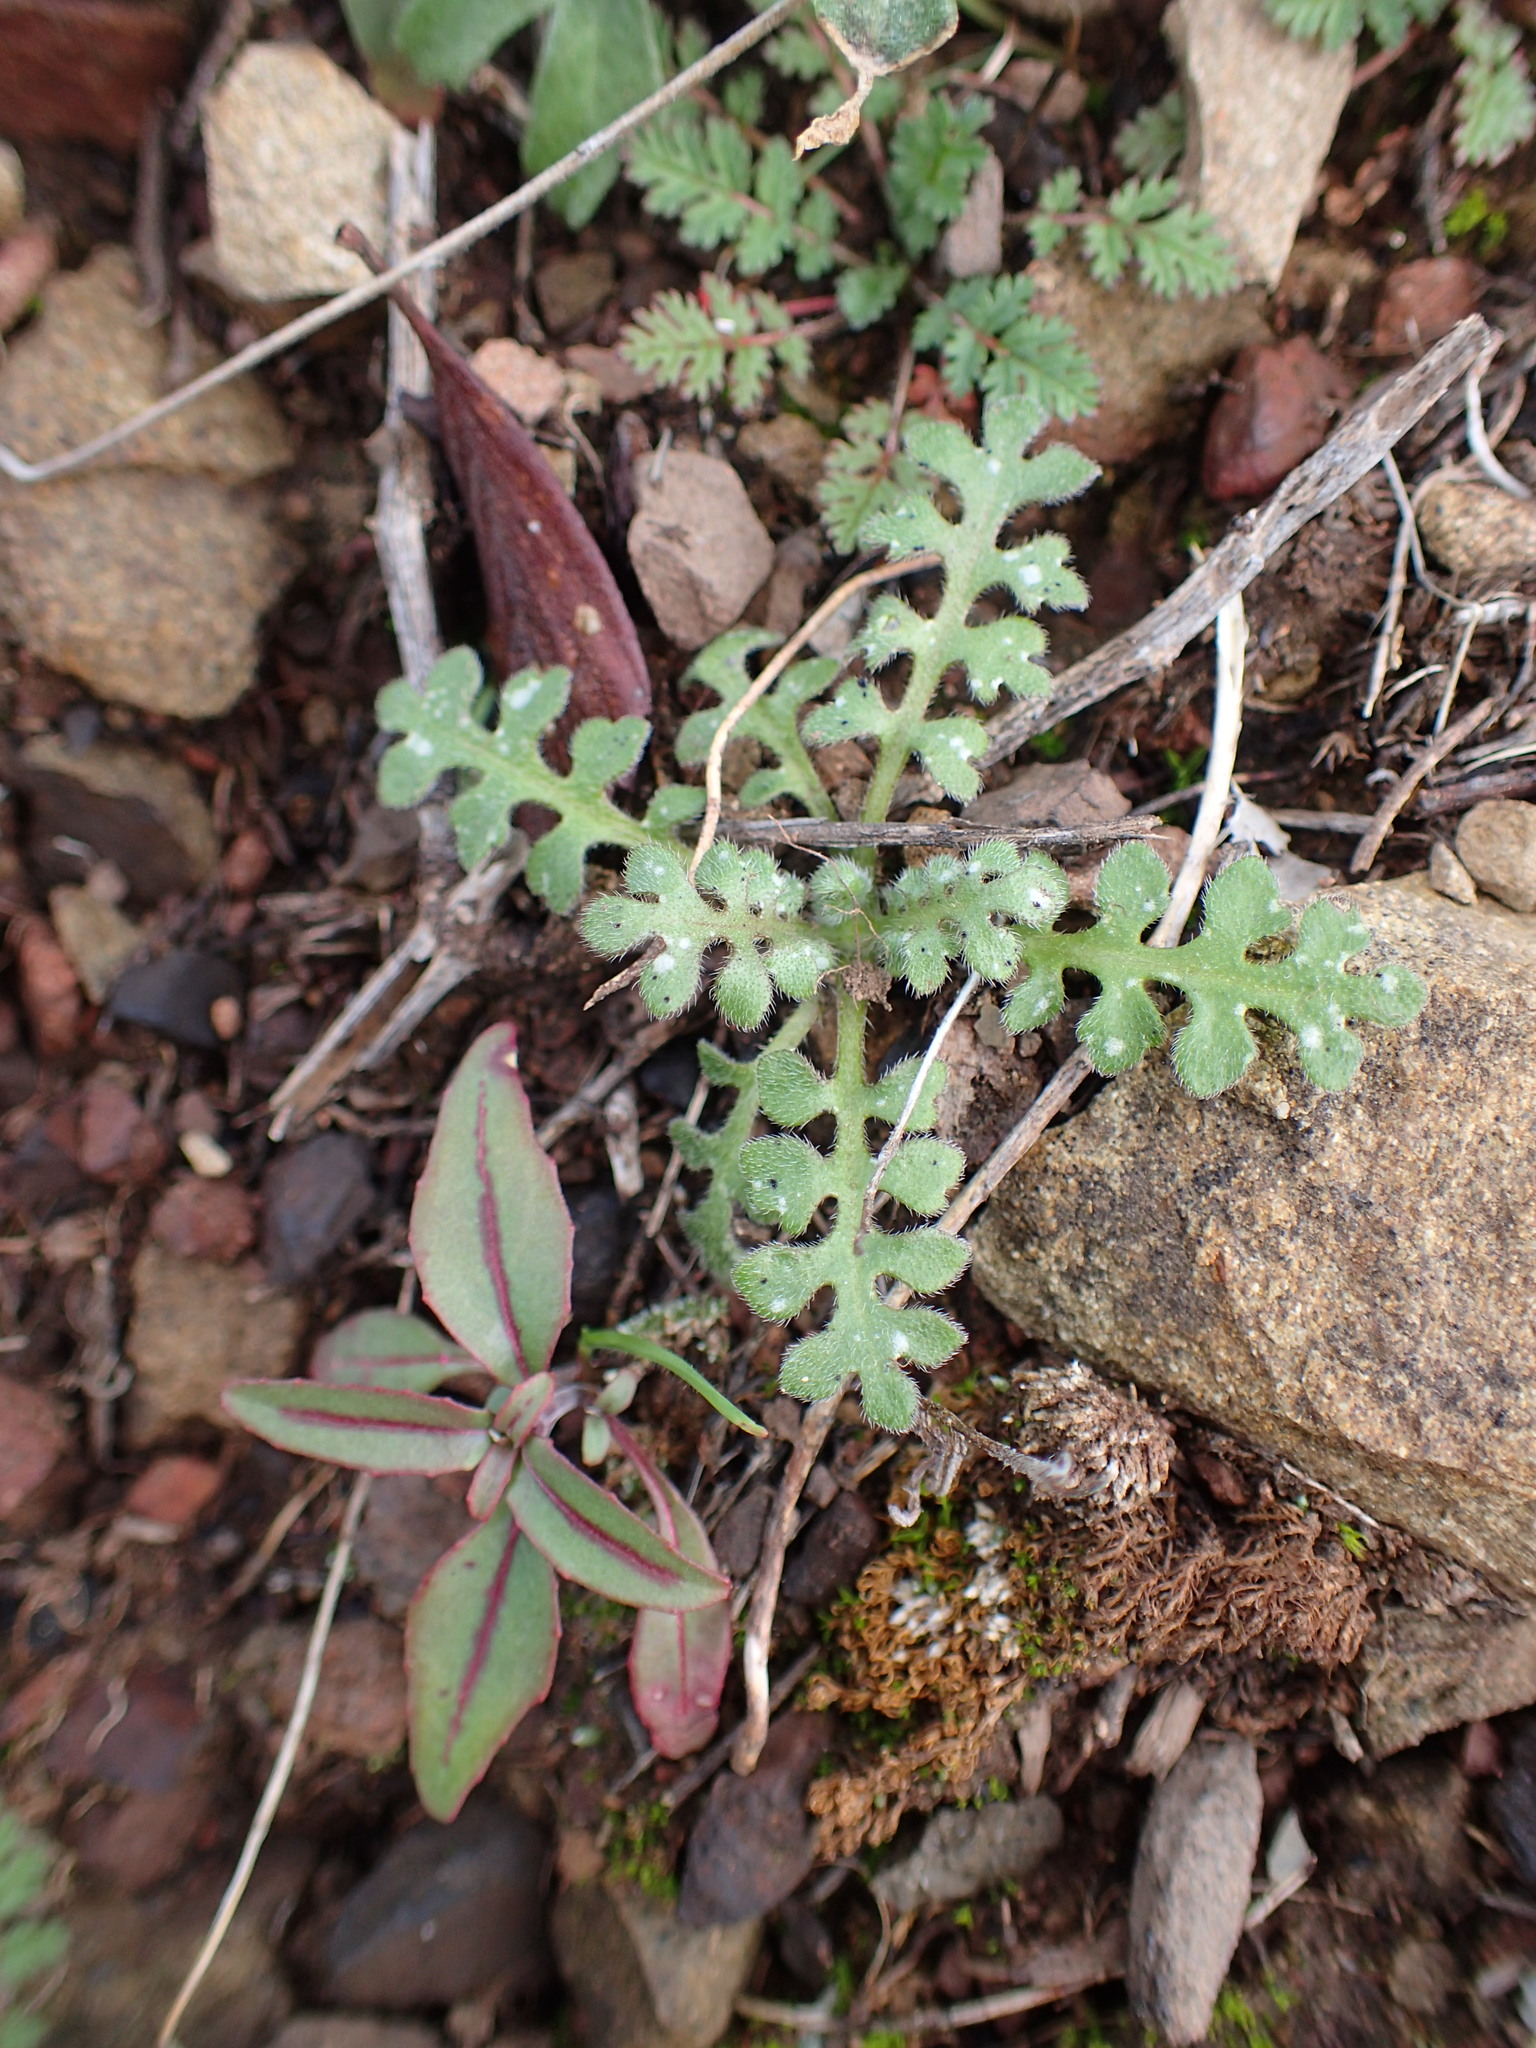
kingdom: Plantae
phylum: Tracheophyta
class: Magnoliopsida
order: Boraginales
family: Hydrophyllaceae
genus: Nemophila
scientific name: Nemophila menziesii
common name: Baby's-blue-eyes
